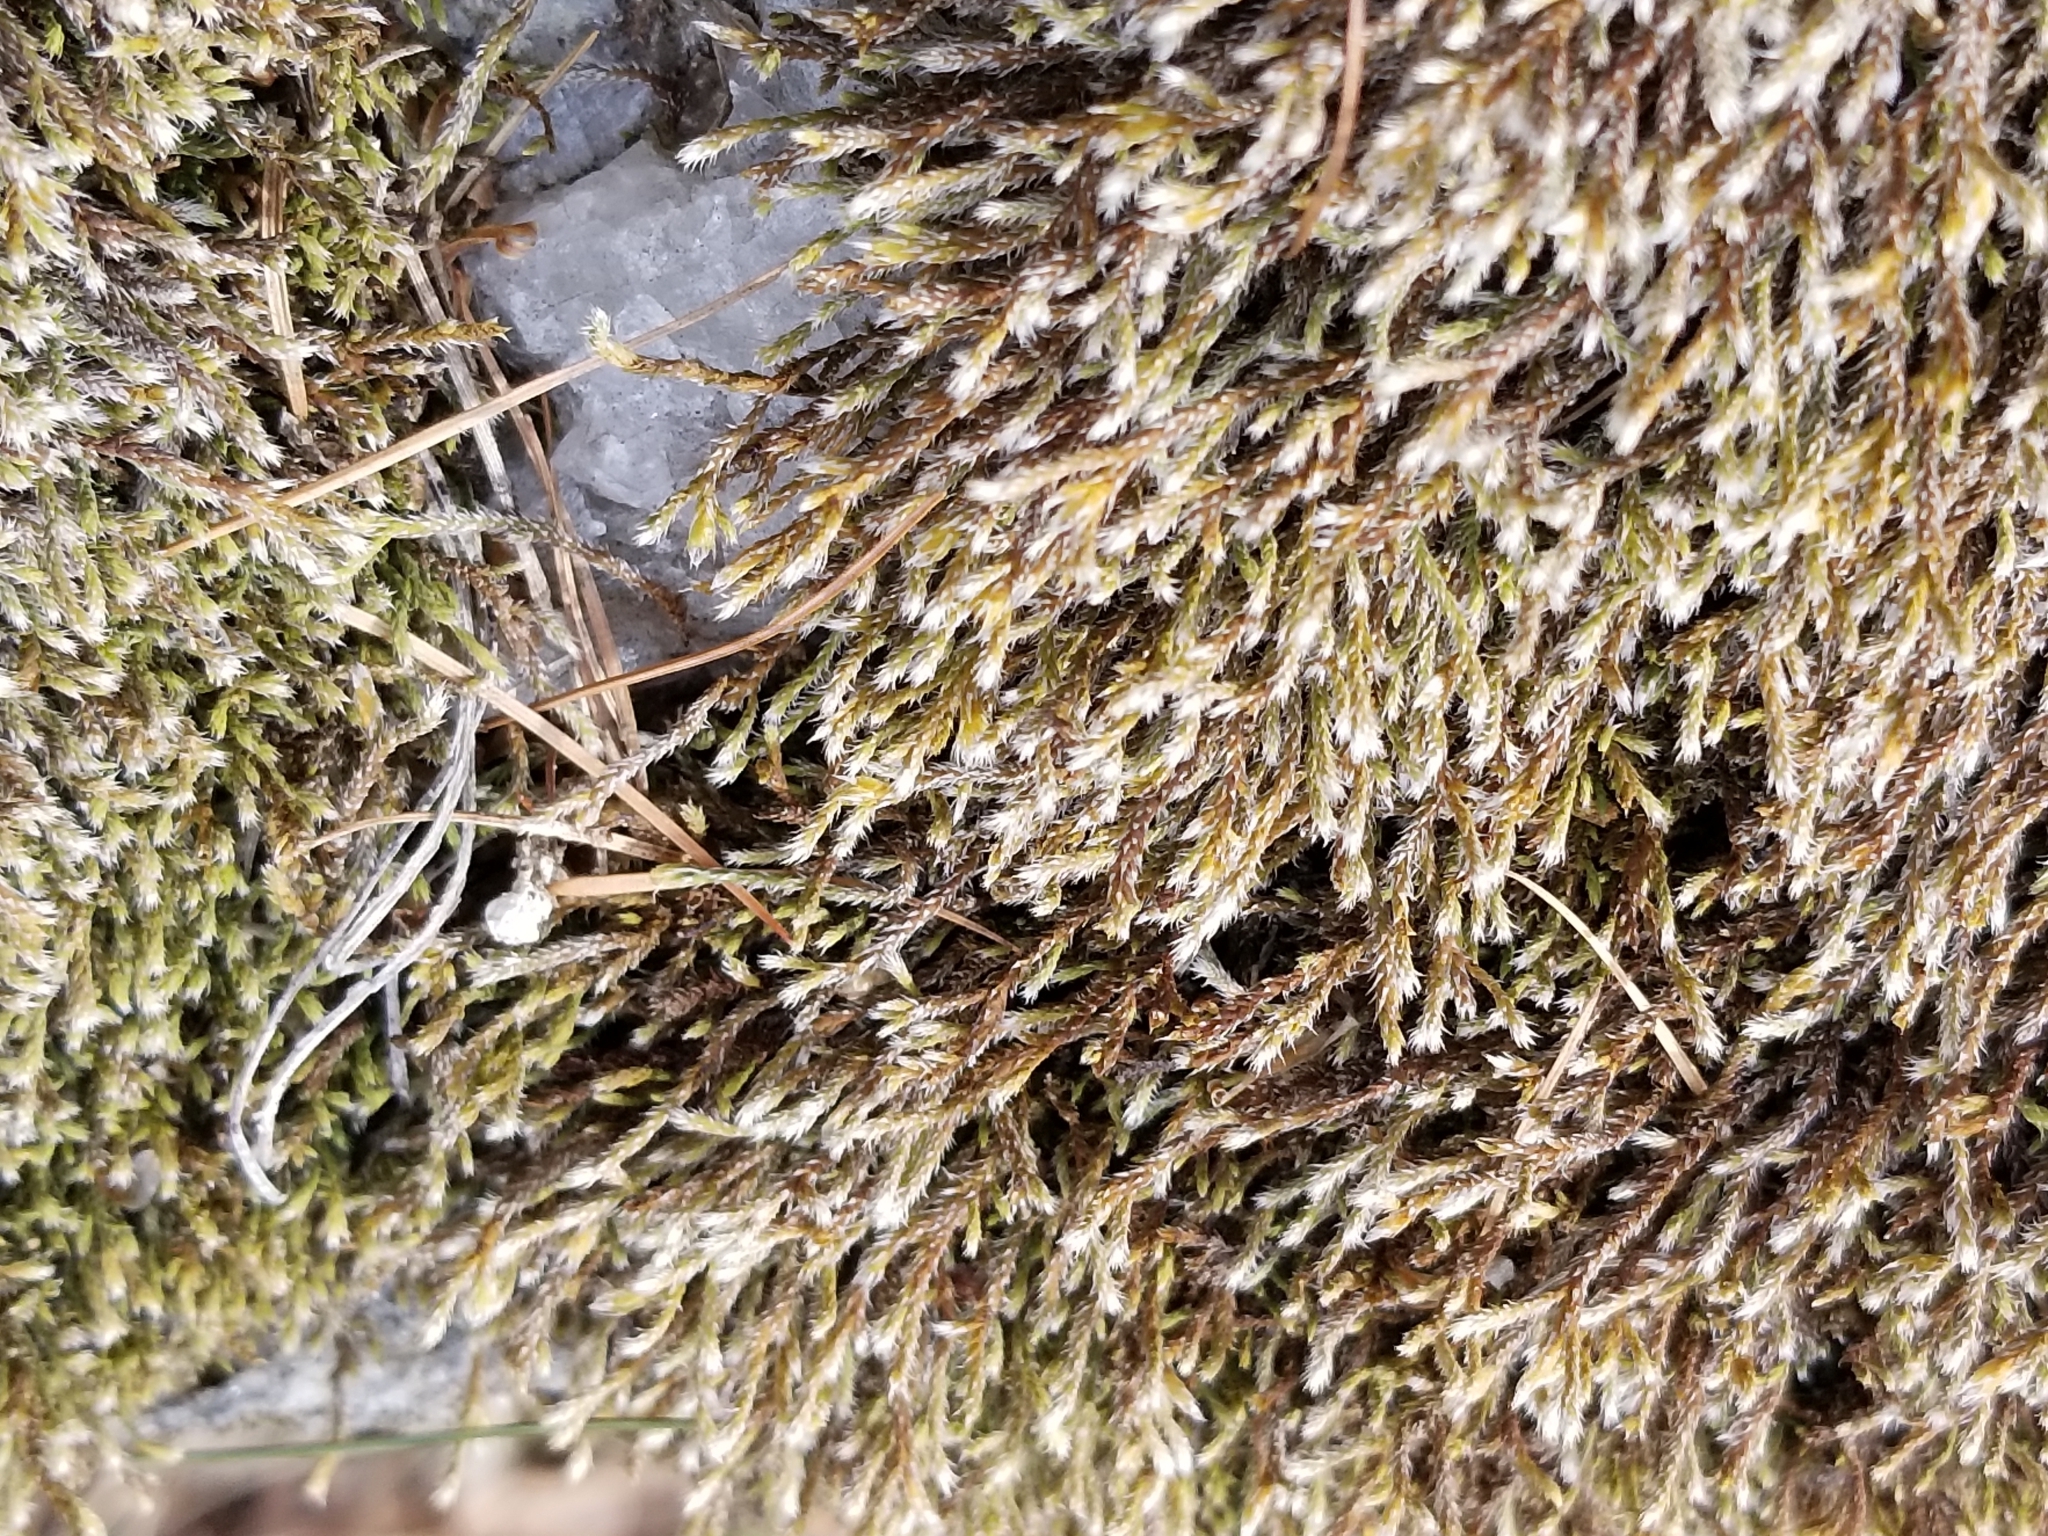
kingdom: Plantae
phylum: Bryophyta
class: Bryopsida
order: Hedwigiales
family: Hedwigiaceae
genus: Hedwigia
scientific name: Hedwigia ciliata
